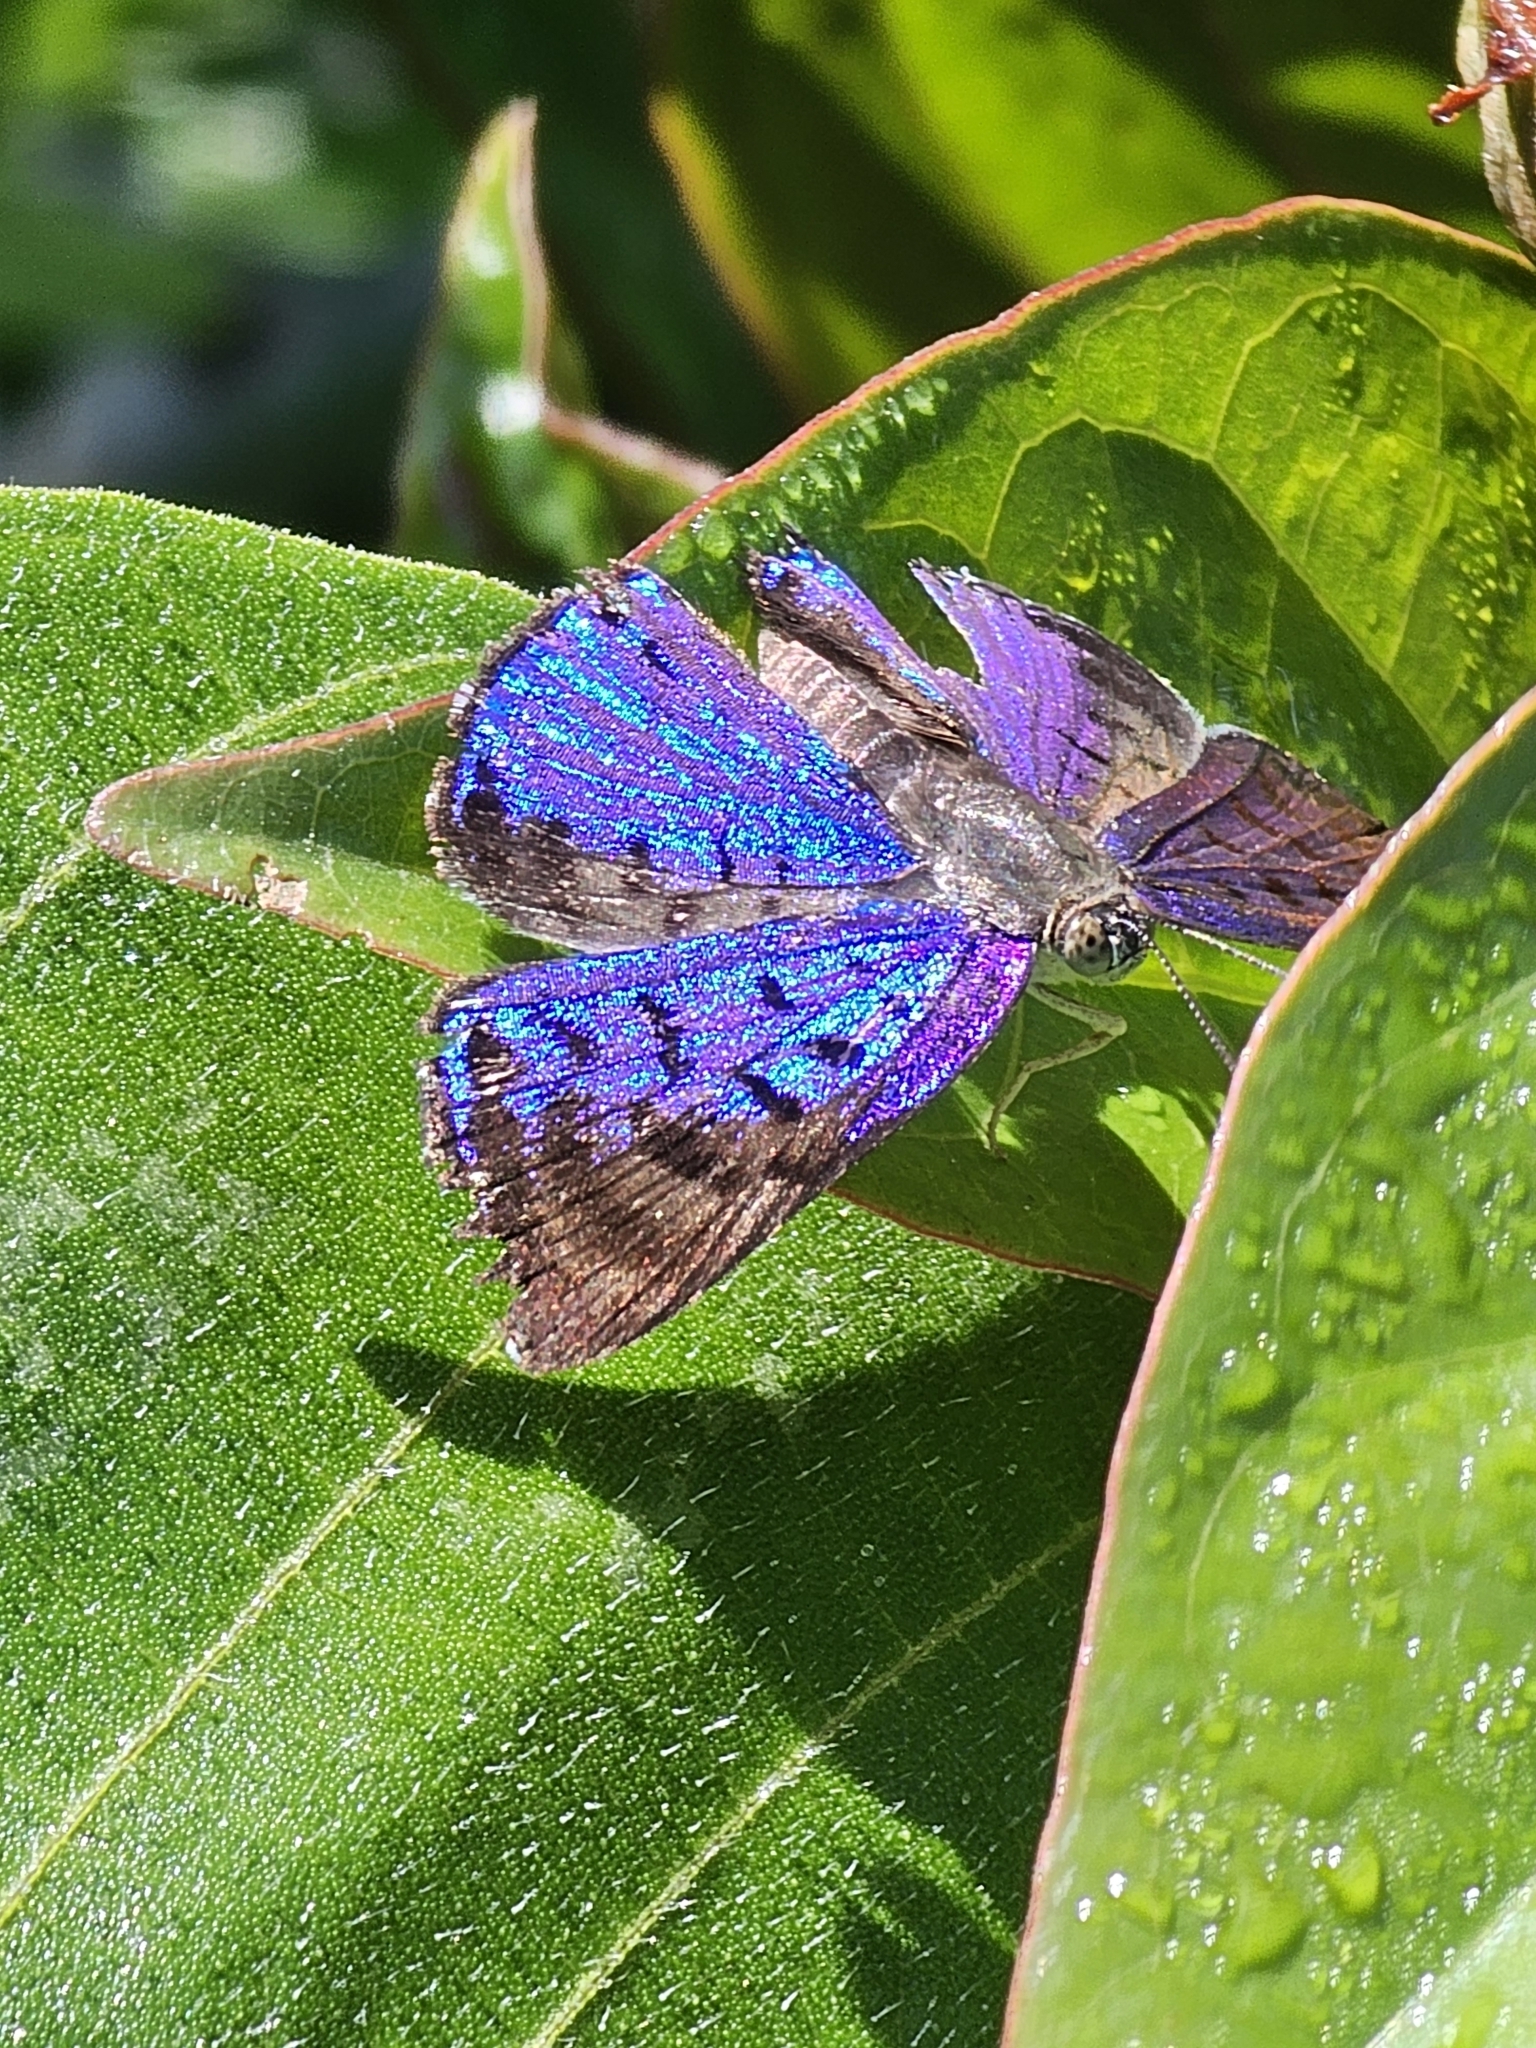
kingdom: Animalia
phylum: Arthropoda
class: Insecta
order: Lepidoptera
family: Riodinidae
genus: Periplacis
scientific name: Periplacis menander
